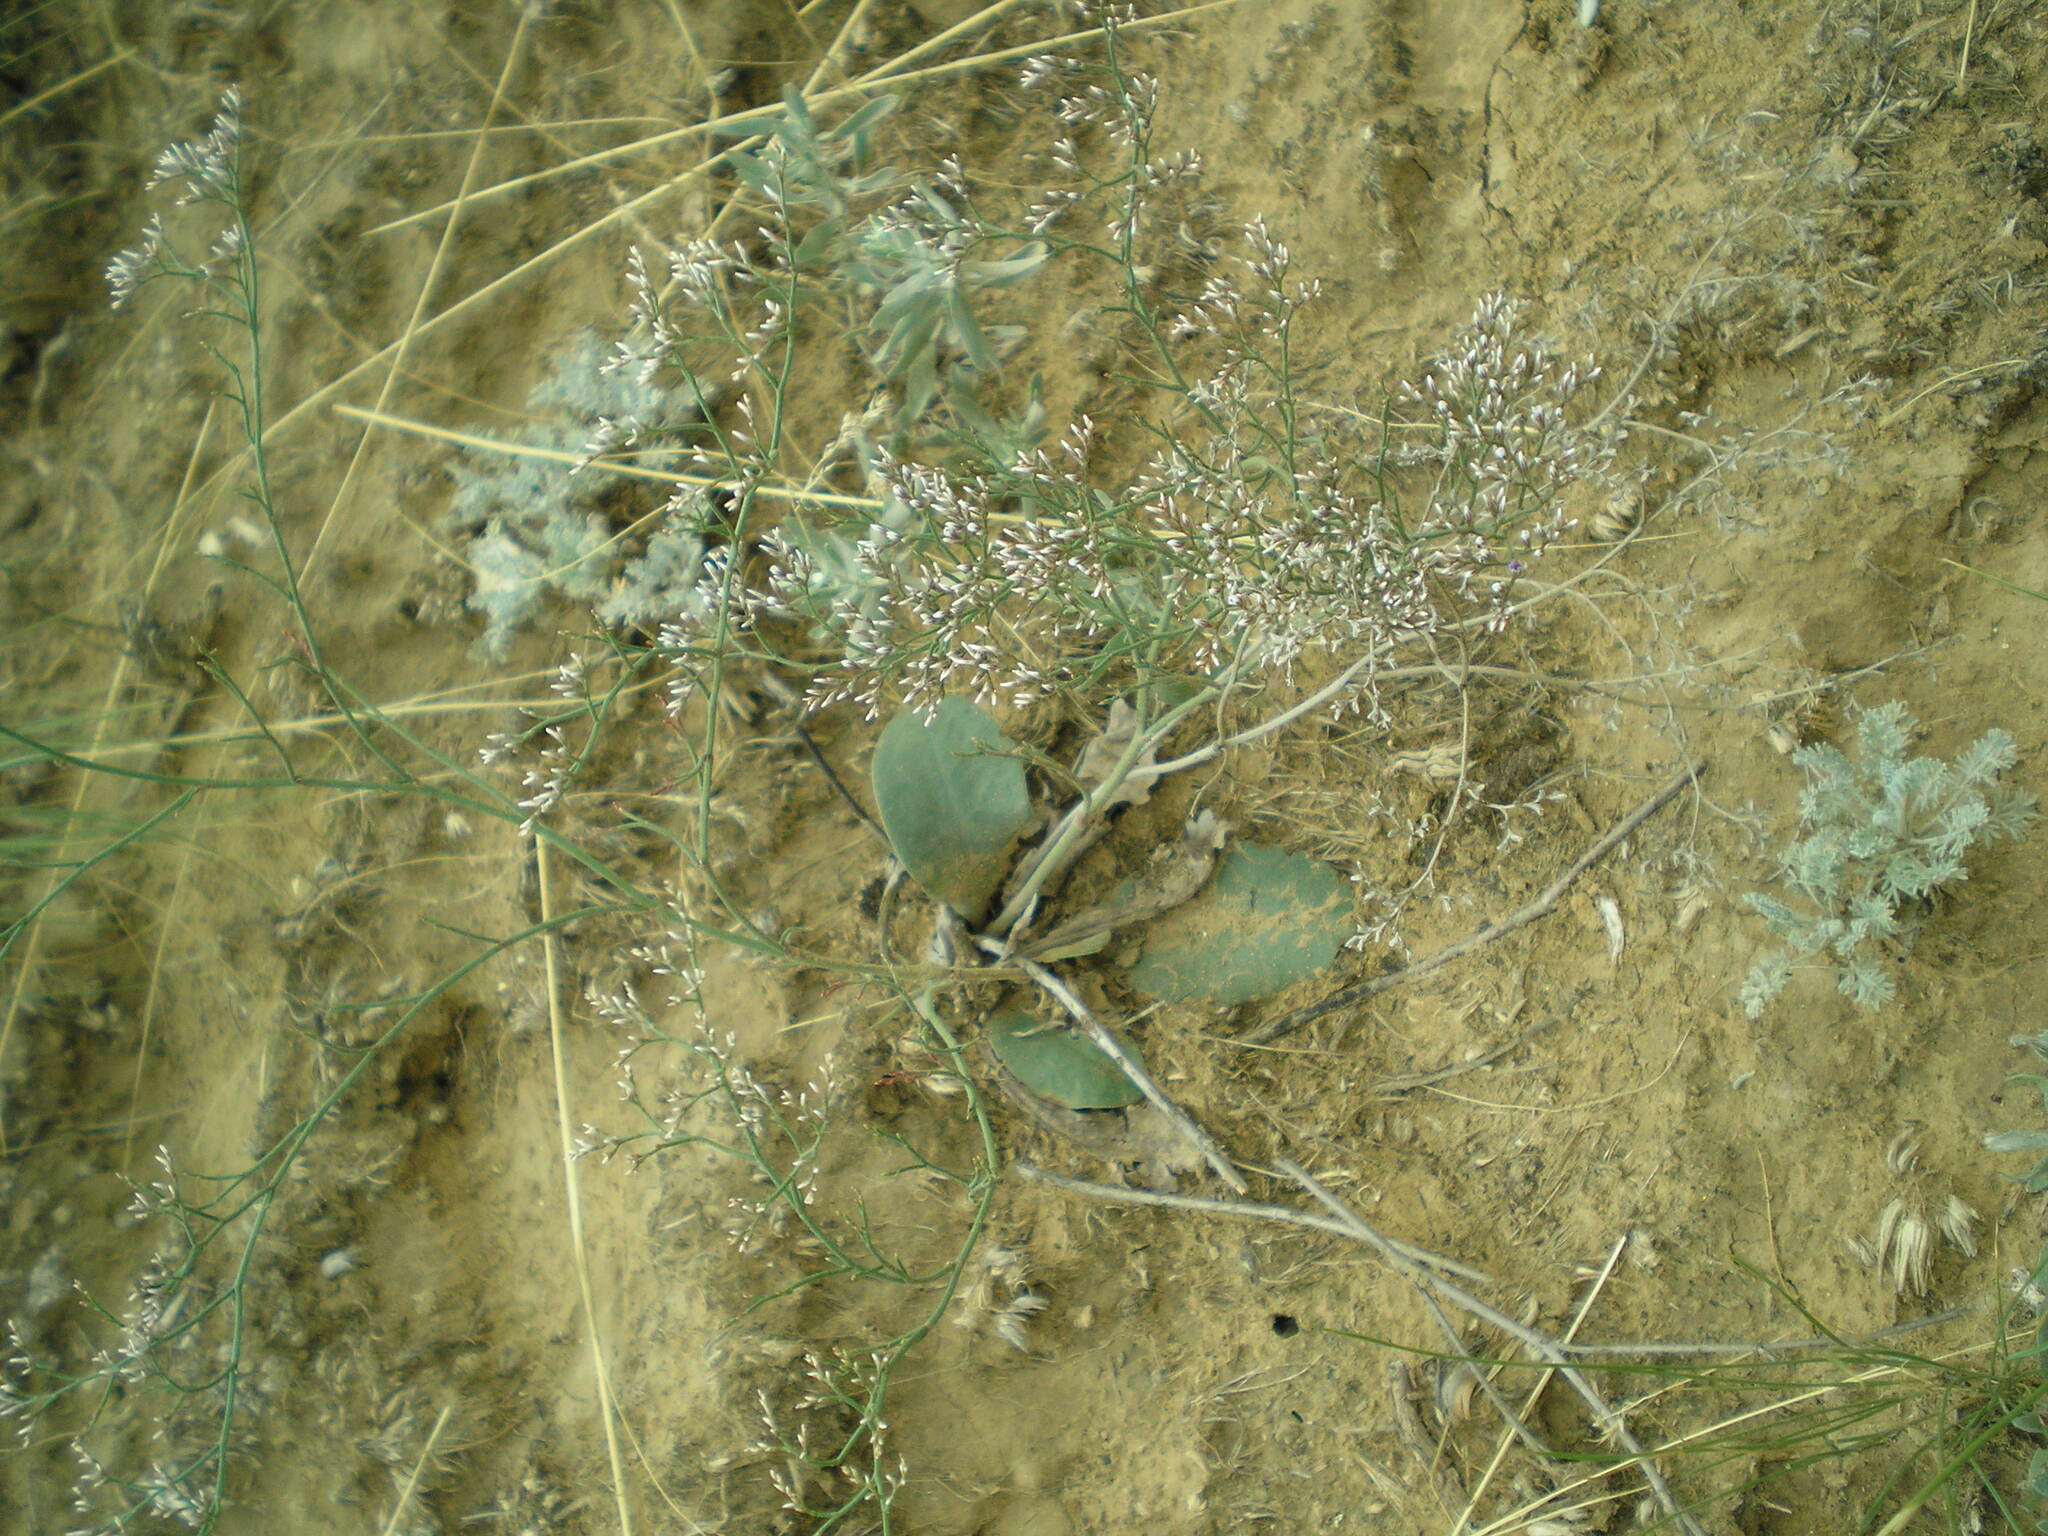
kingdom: Plantae
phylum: Tracheophyta
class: Magnoliopsida
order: Caryophyllales
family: Plumbaginaceae
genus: Limonium
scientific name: Limonium gmelini
